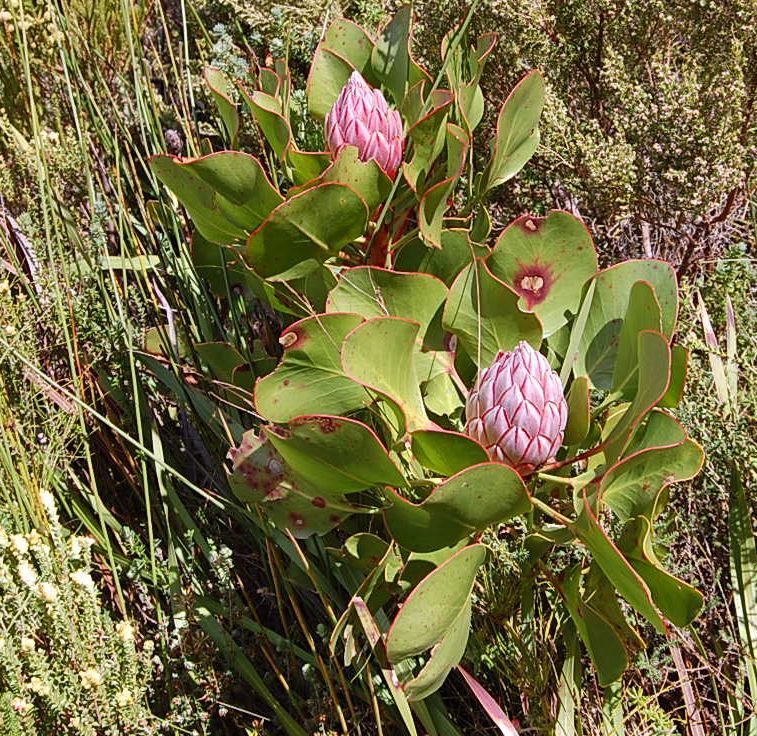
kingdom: Plantae
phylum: Tracheophyta
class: Magnoliopsida
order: Proteales
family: Proteaceae
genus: Protea
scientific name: Protea cynaroides
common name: King protea
